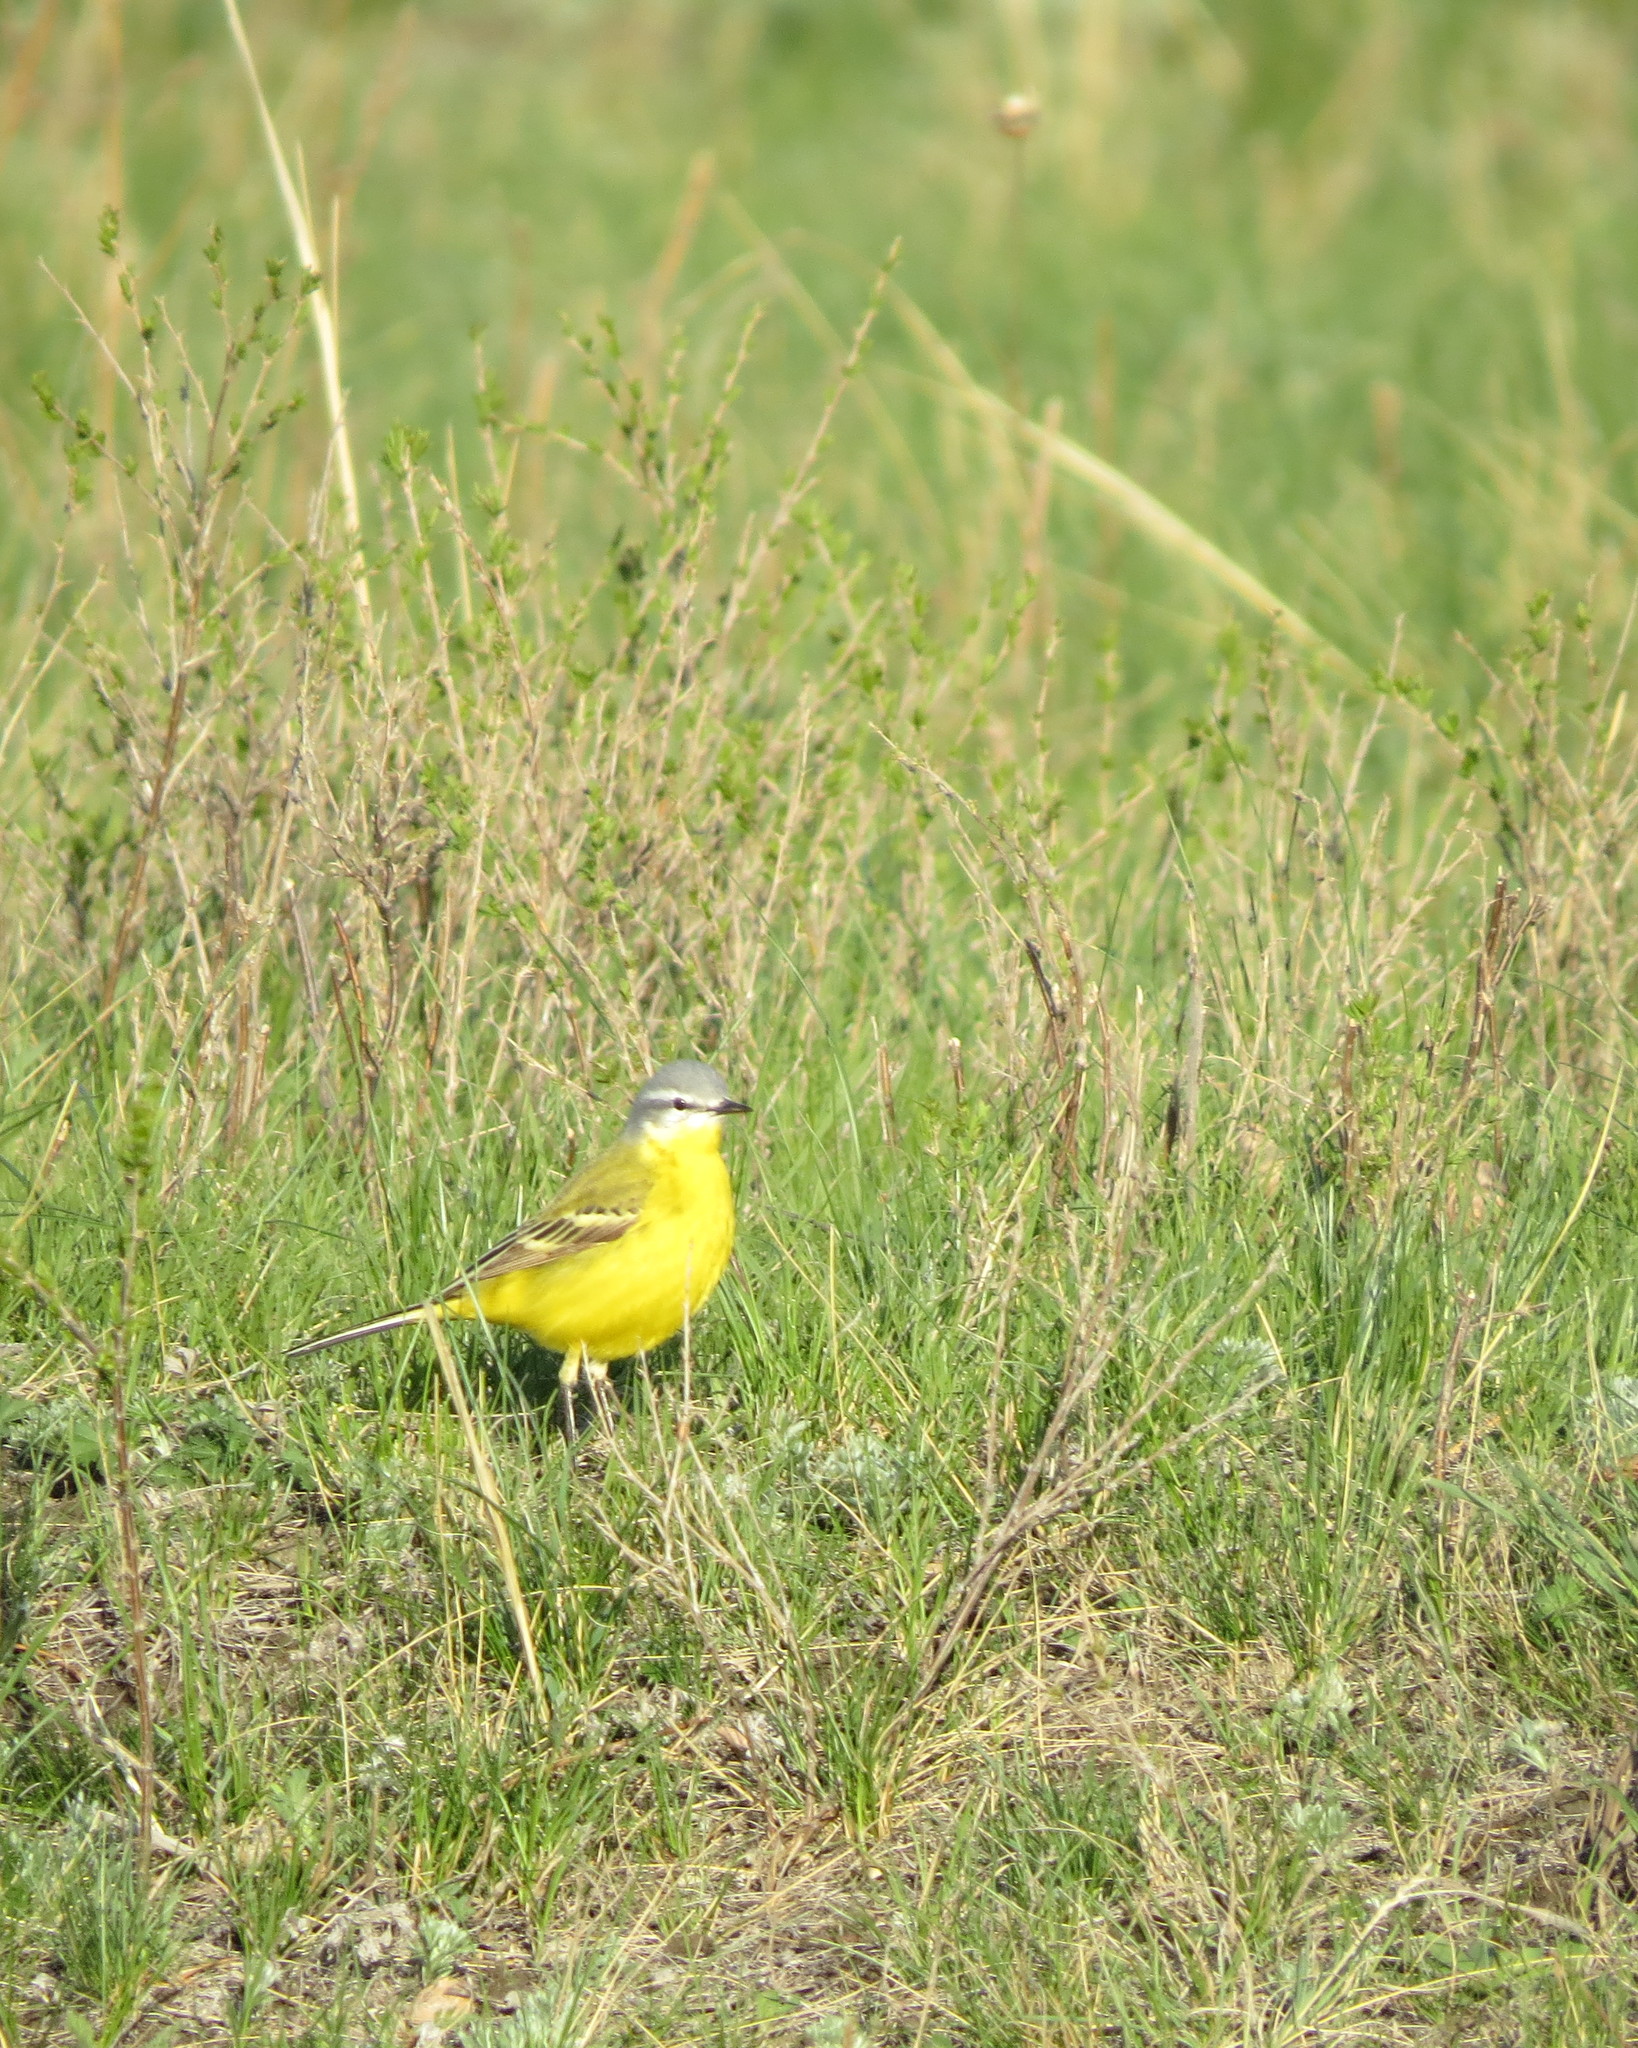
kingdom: Animalia
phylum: Chordata
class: Aves
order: Passeriformes
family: Motacillidae
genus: Motacilla
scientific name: Motacilla flava
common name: Western yellow wagtail
